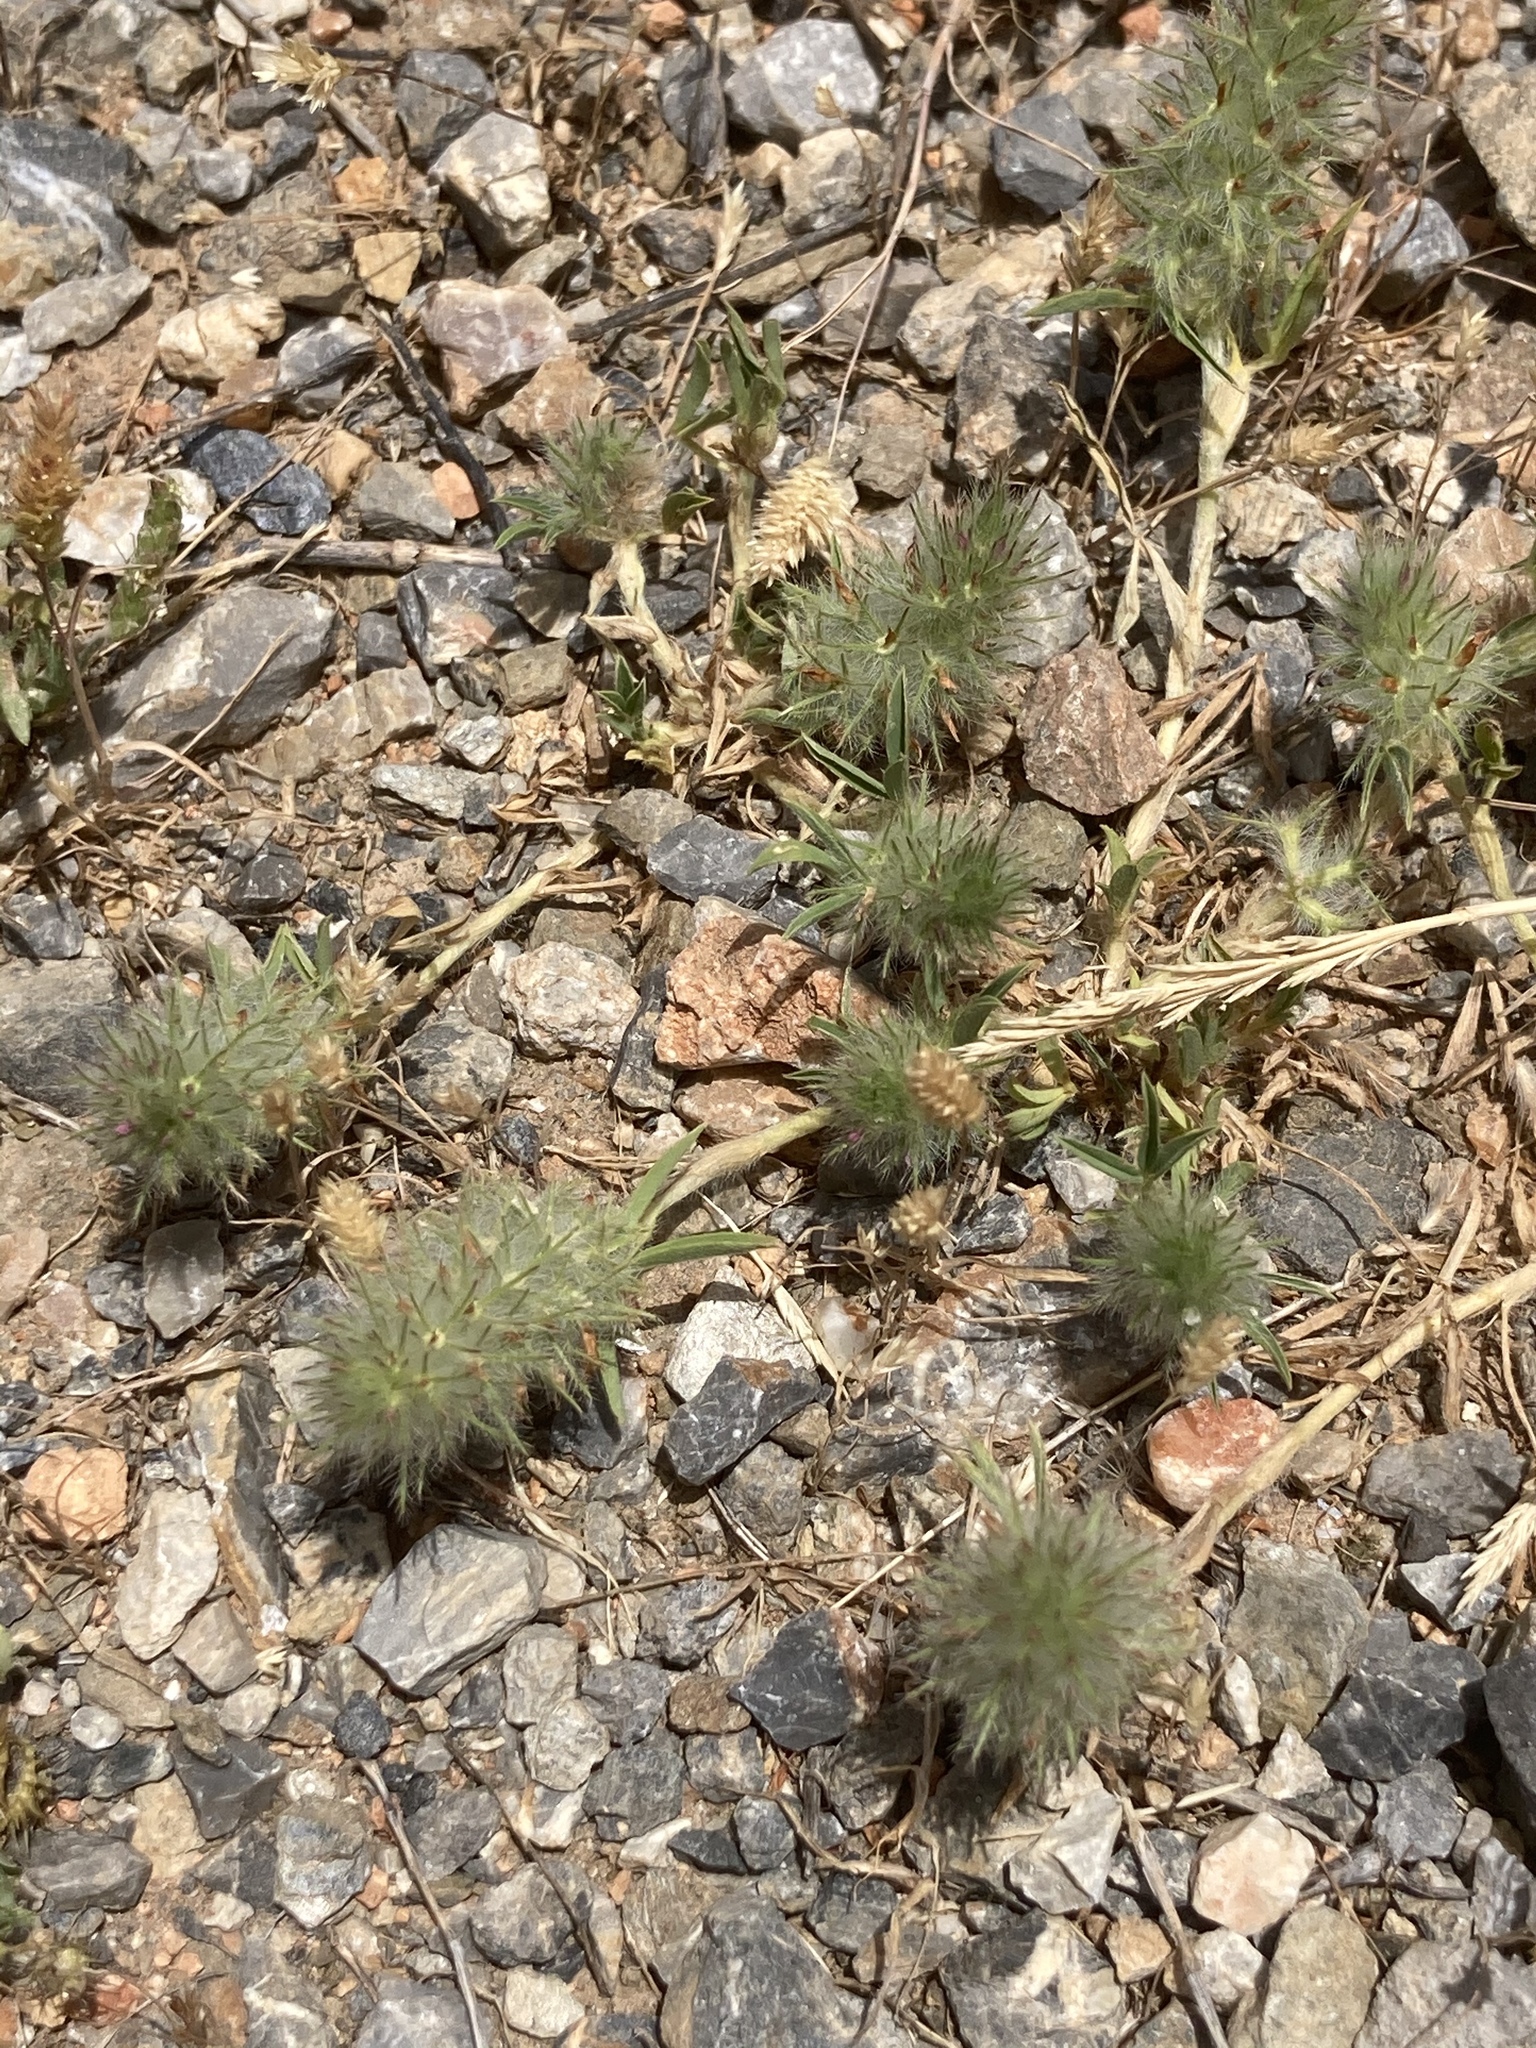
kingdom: Plantae
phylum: Tracheophyta
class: Magnoliopsida
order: Fabales
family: Fabaceae
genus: Trifolium
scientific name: Trifolium
